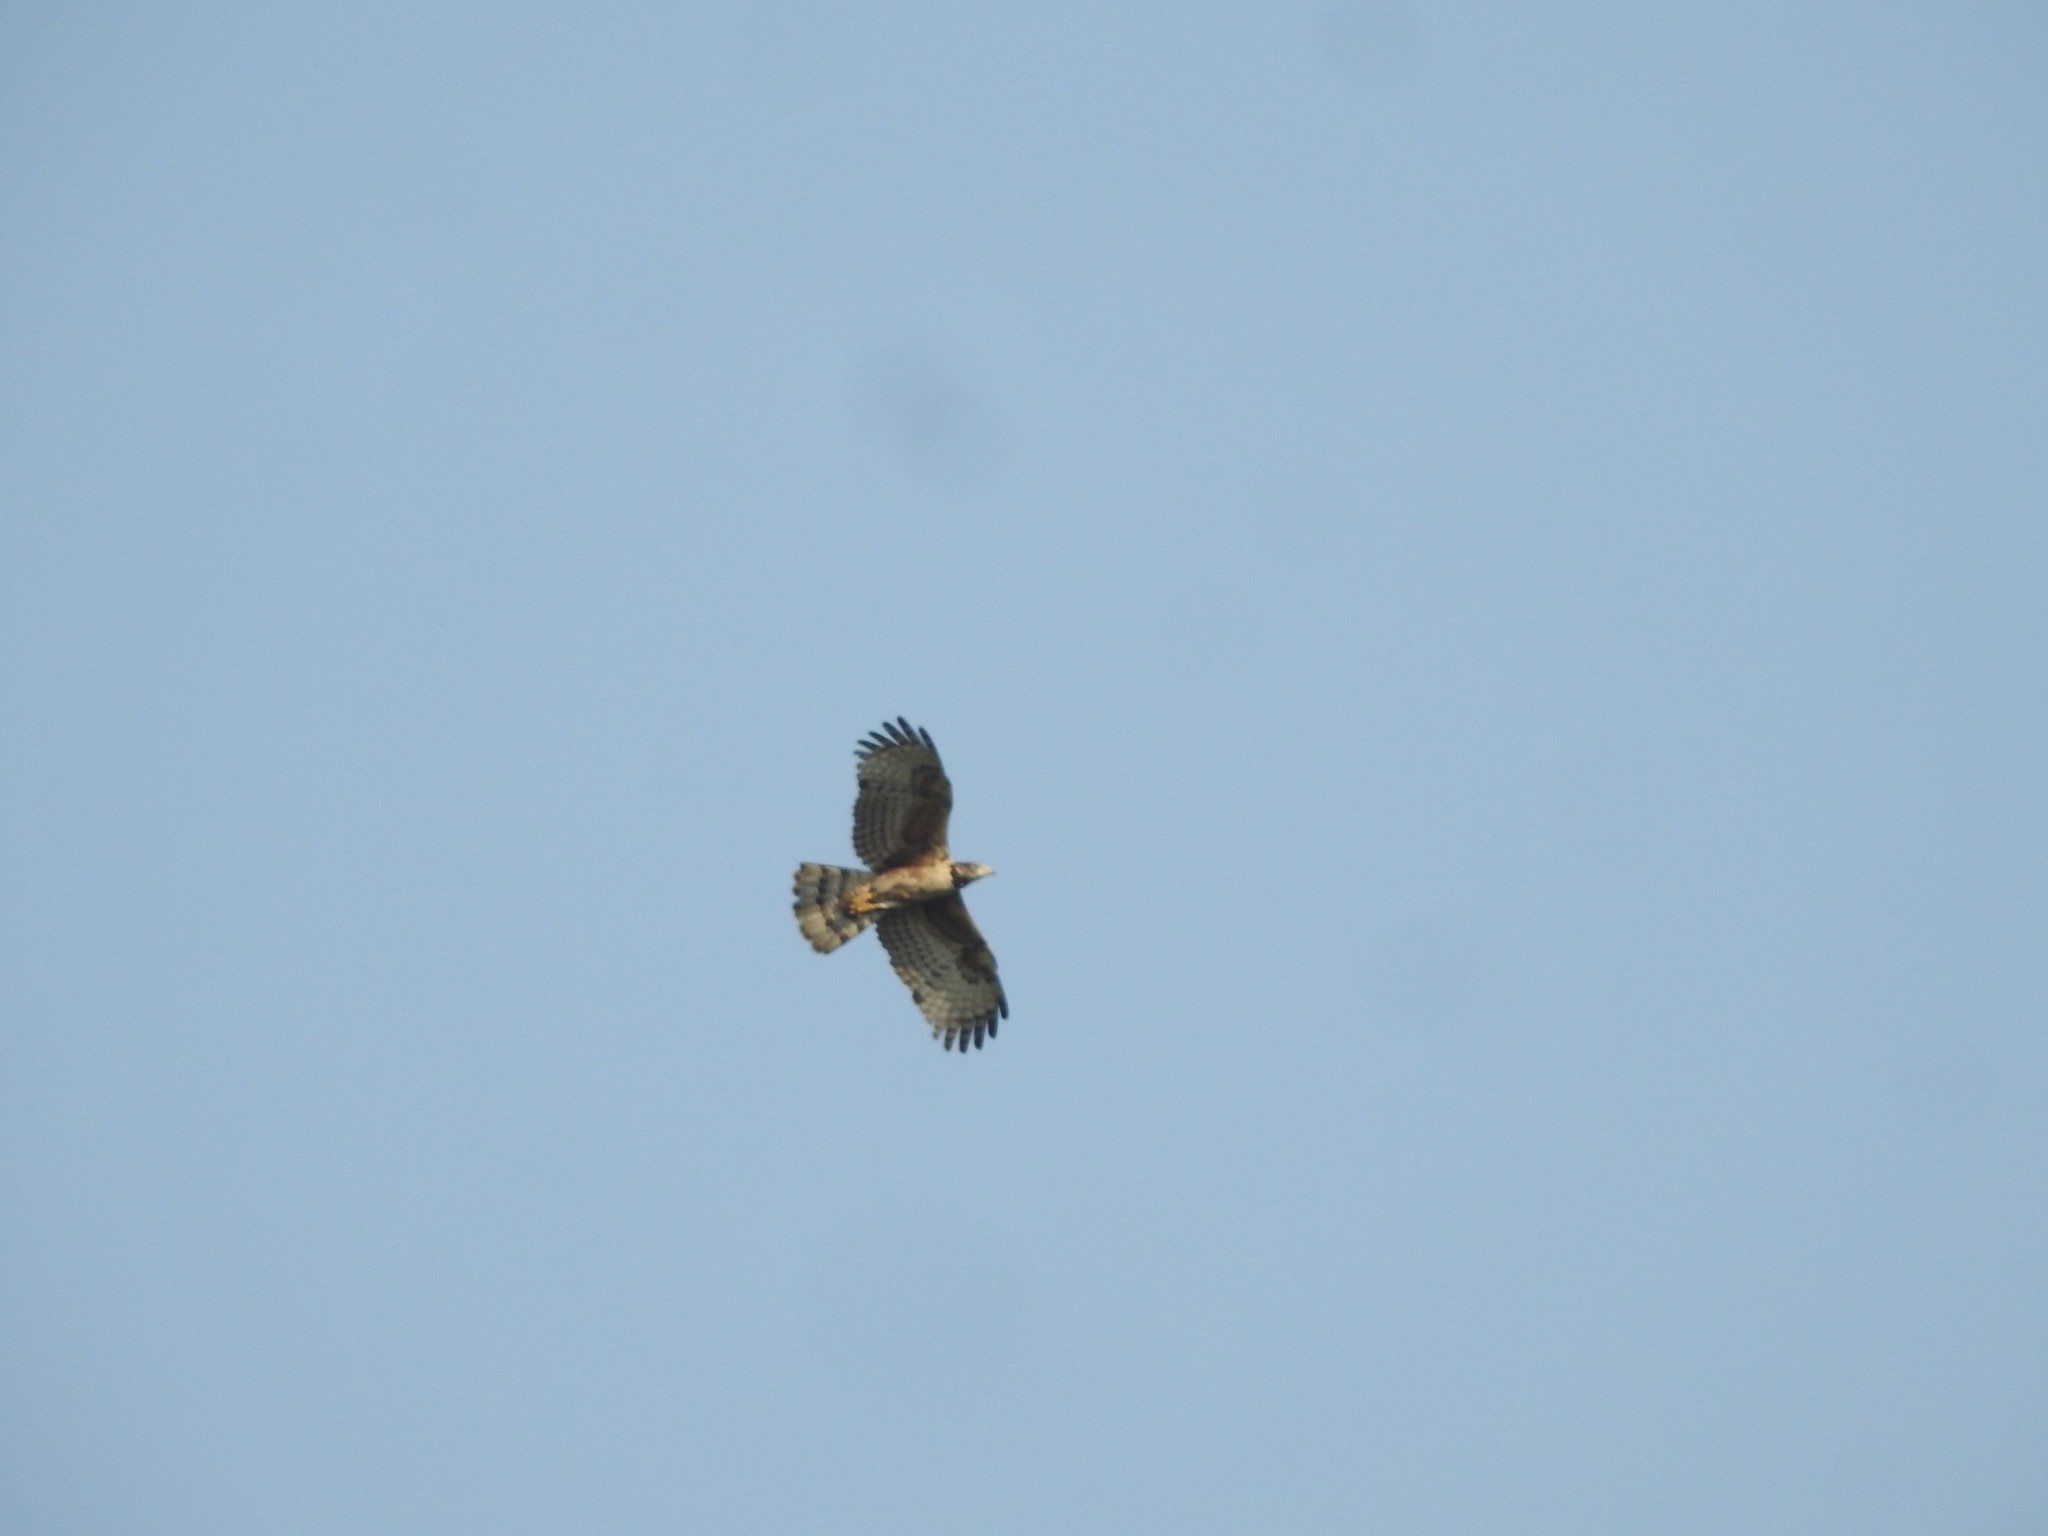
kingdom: Animalia
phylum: Chordata
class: Aves
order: Accipitriformes
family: Accipitridae
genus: Pernis
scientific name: Pernis ptilorhynchus
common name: Crested honey buzzard
